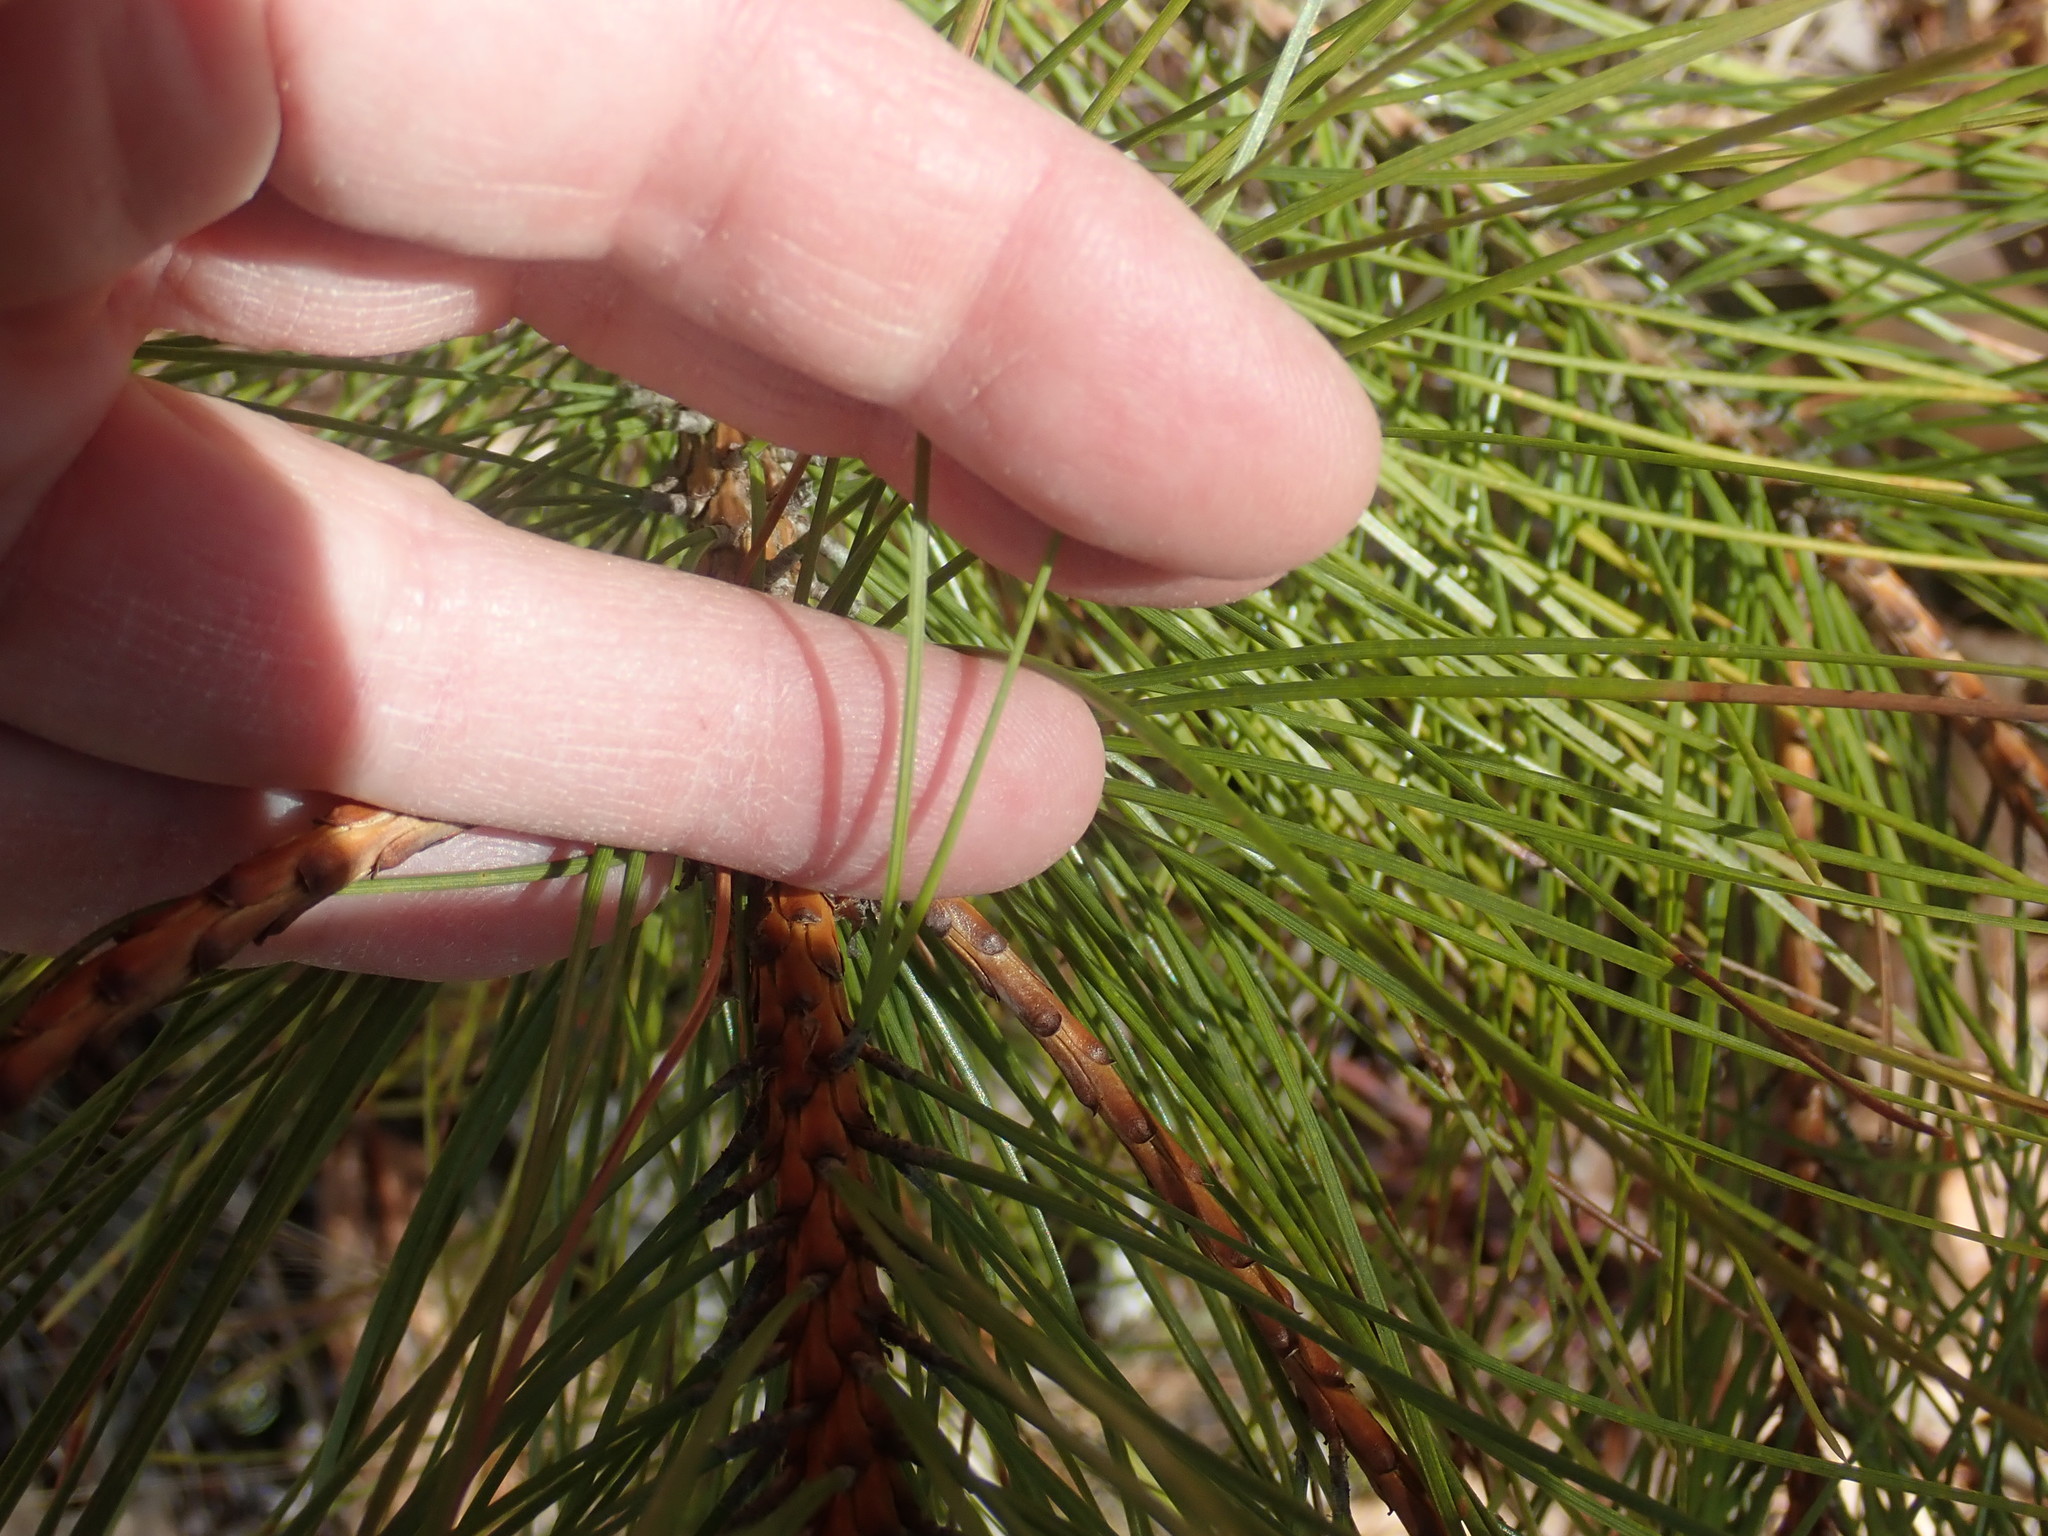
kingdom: Plantae
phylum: Tracheophyta
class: Pinopsida
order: Pinales
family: Pinaceae
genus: Pinus
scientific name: Pinus resinosa
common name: Norway pine
